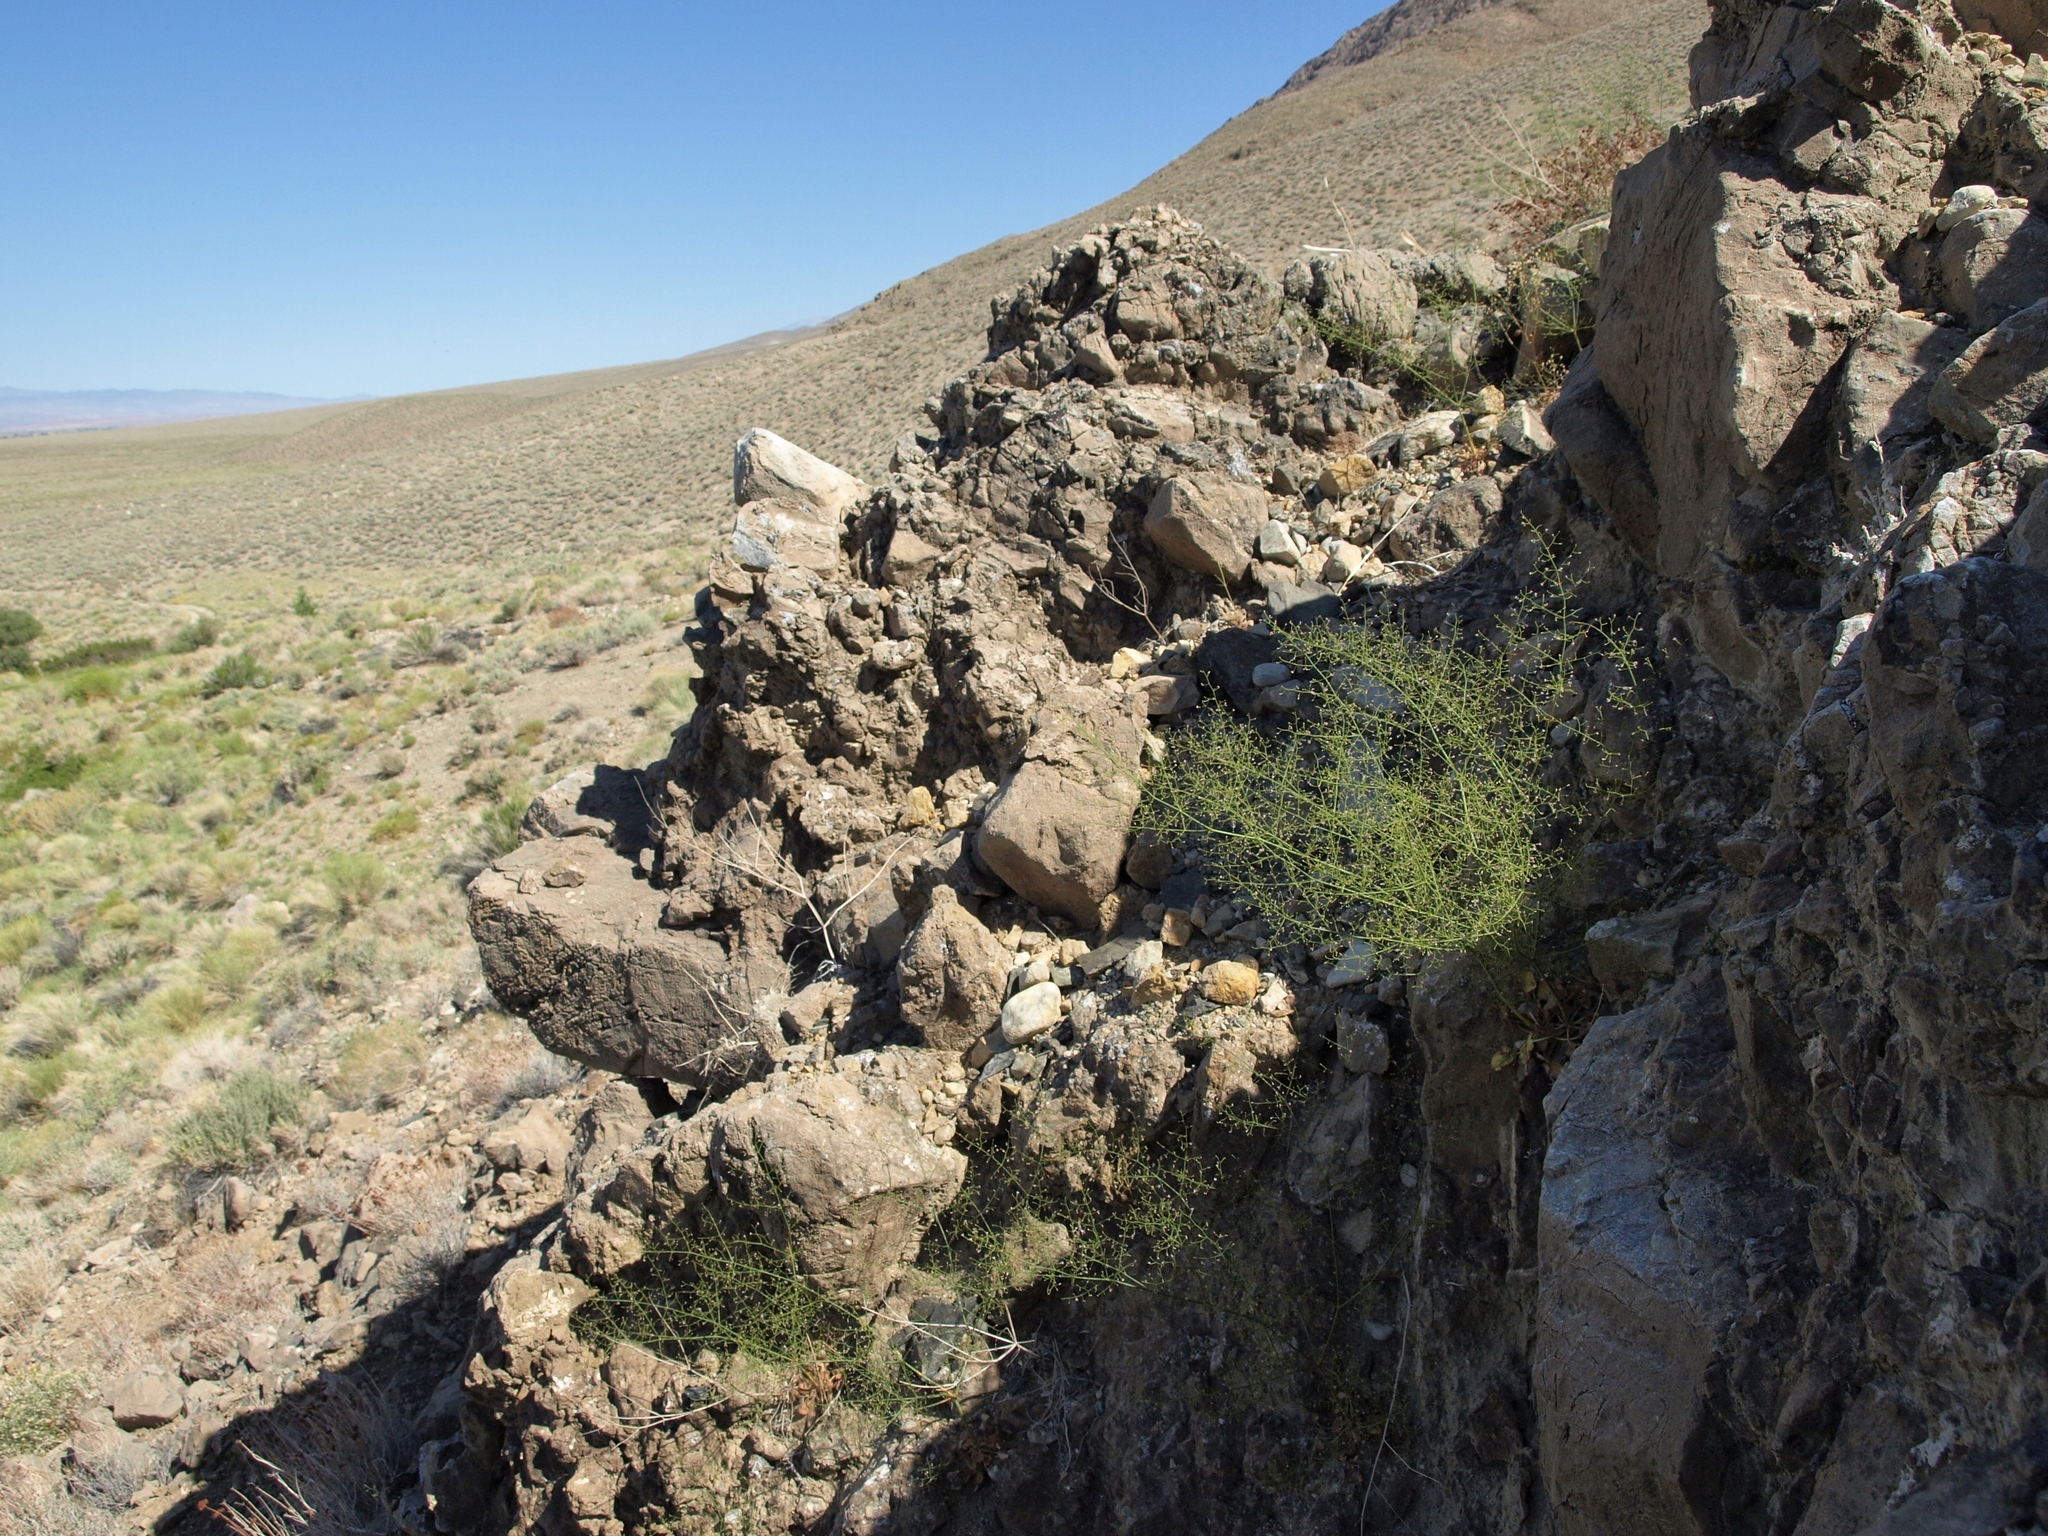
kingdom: Plantae
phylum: Tracheophyta
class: Magnoliopsida
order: Caryophyllales
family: Polygonaceae
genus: Eriogonum
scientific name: Eriogonum glandulosum
